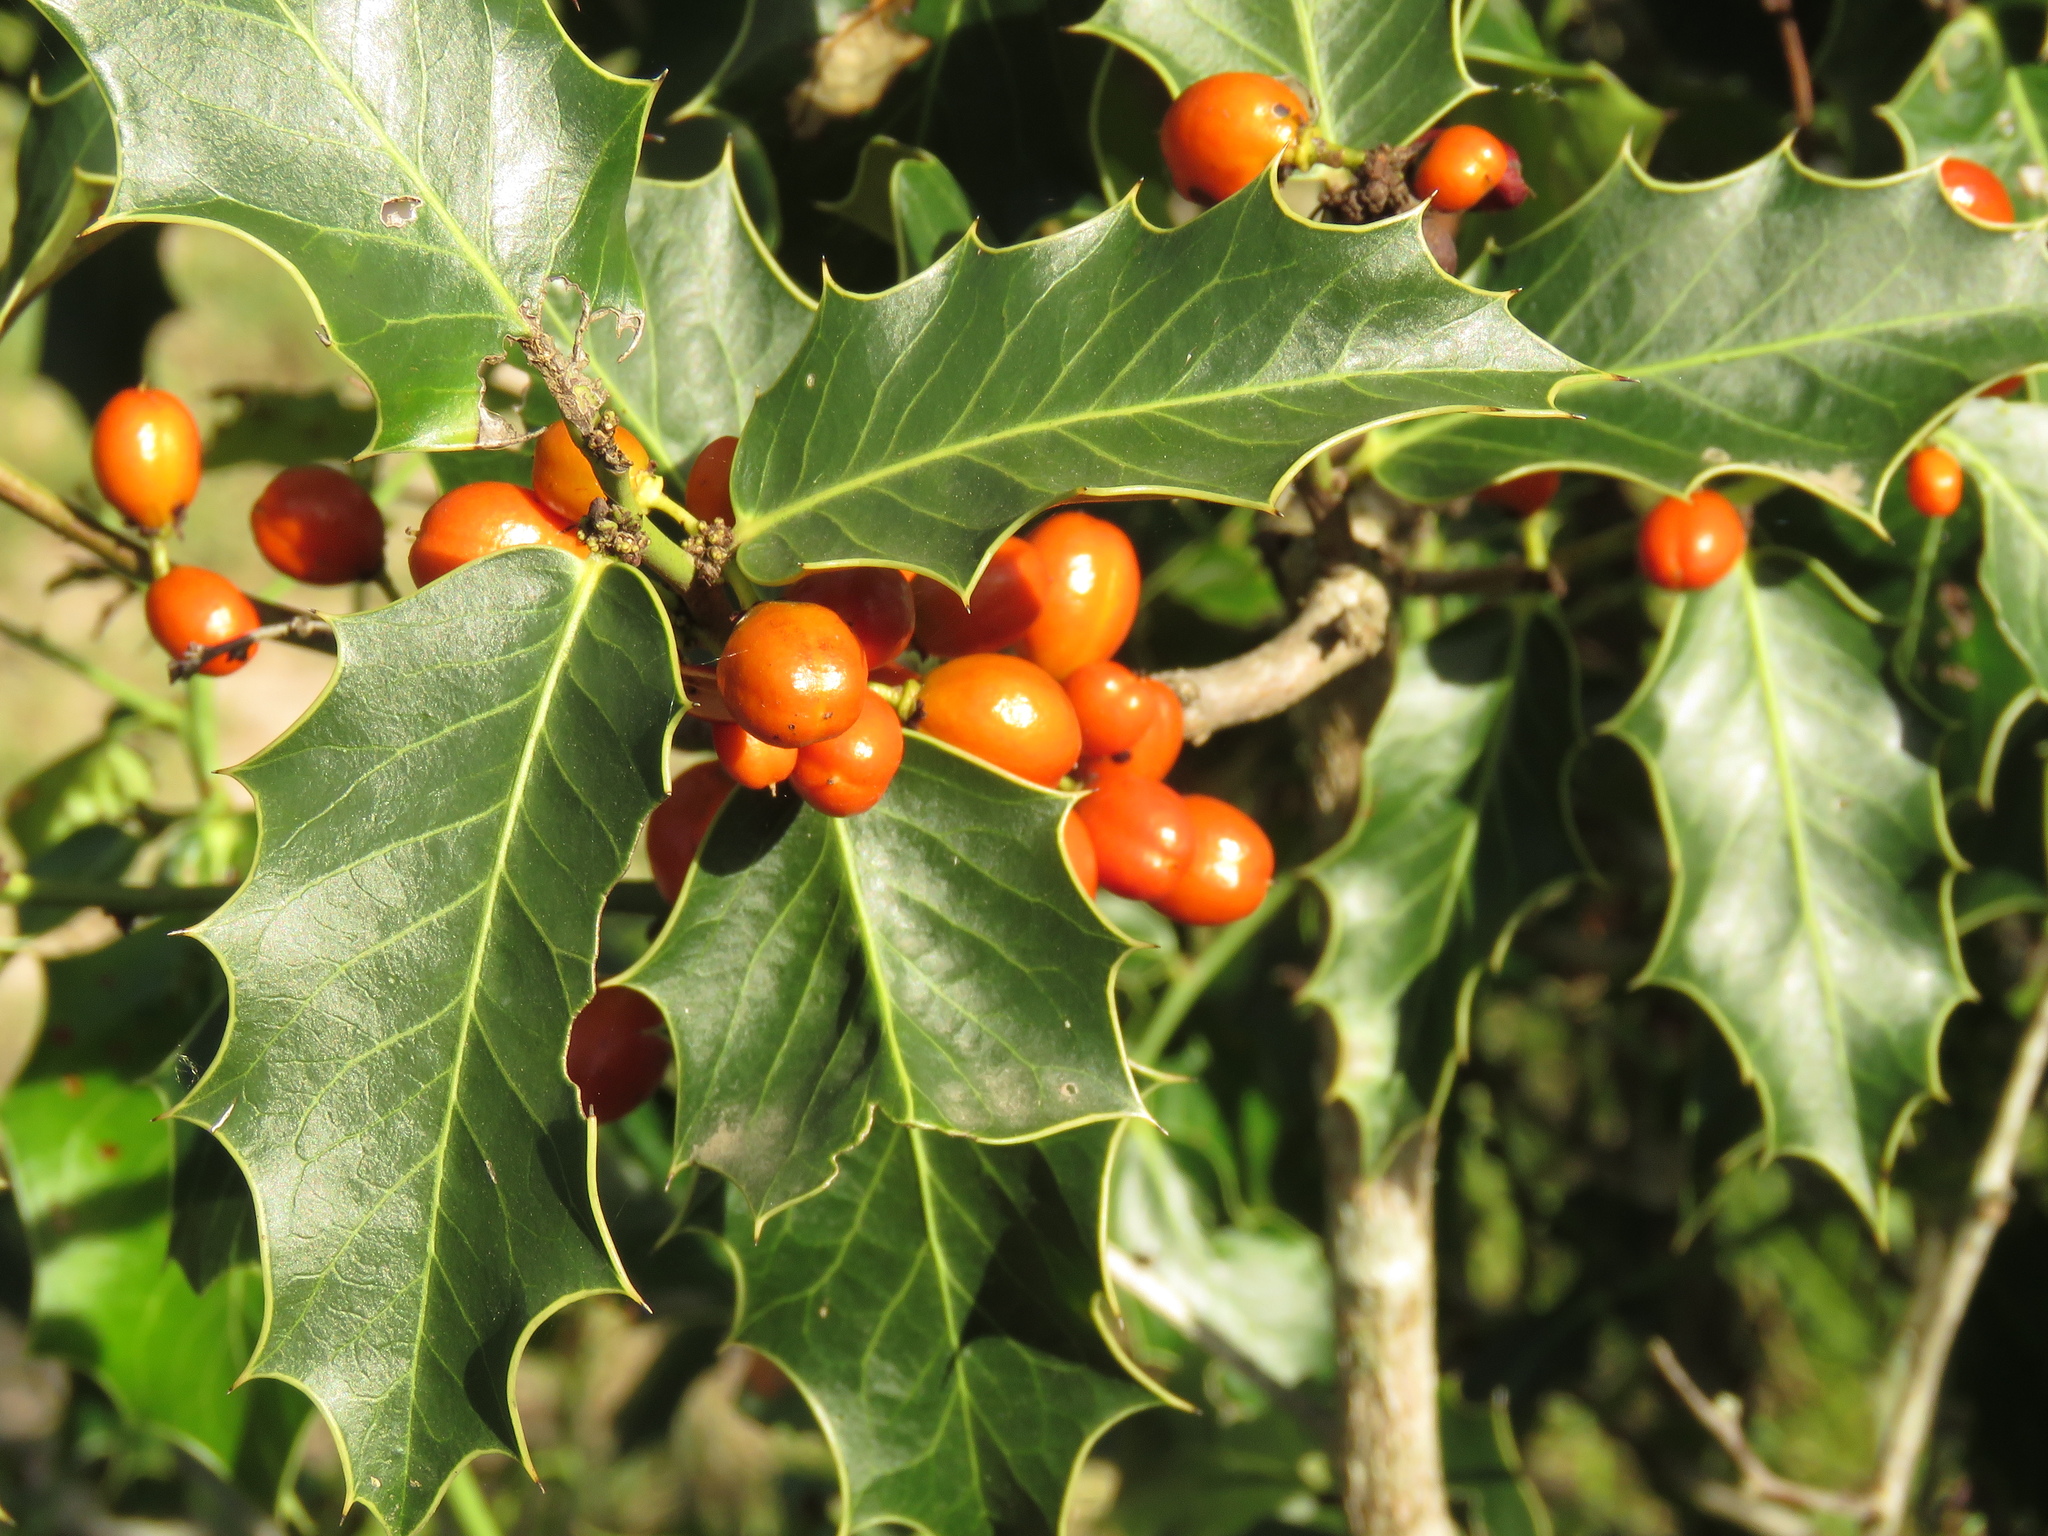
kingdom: Plantae
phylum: Tracheophyta
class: Magnoliopsida
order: Celastrales
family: Celastraceae
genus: Monteverdia
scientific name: Monteverdia
